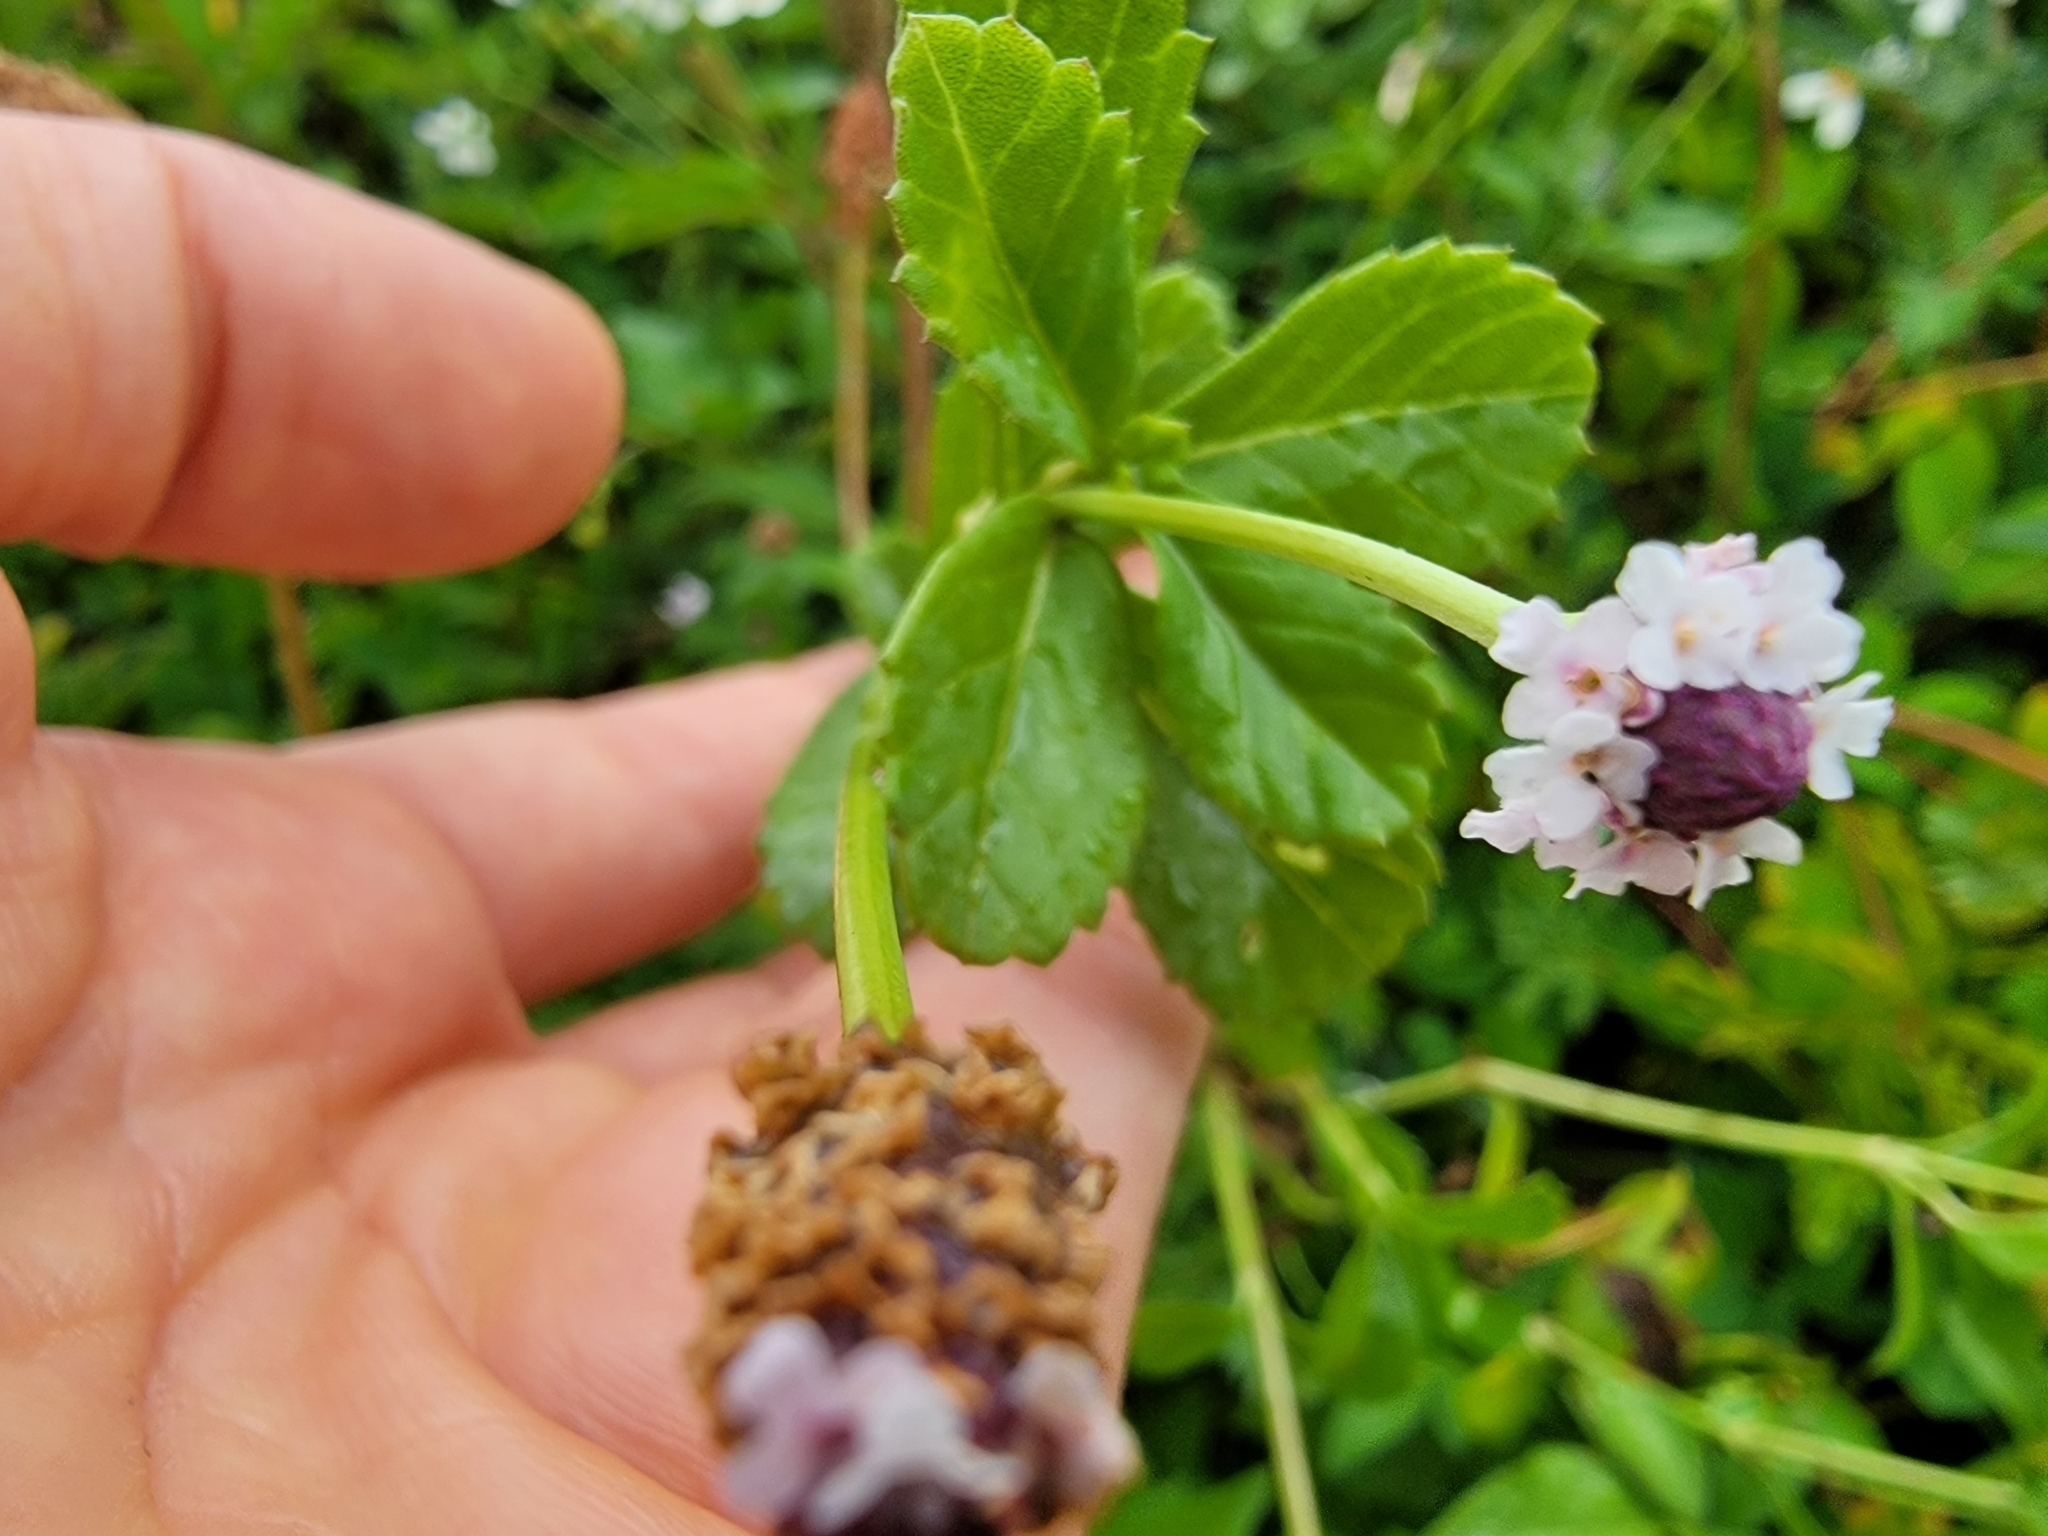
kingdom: Plantae
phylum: Tracheophyta
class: Magnoliopsida
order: Lamiales
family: Verbenaceae
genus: Phyla
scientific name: Phyla nodiflora
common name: Frogfruit
